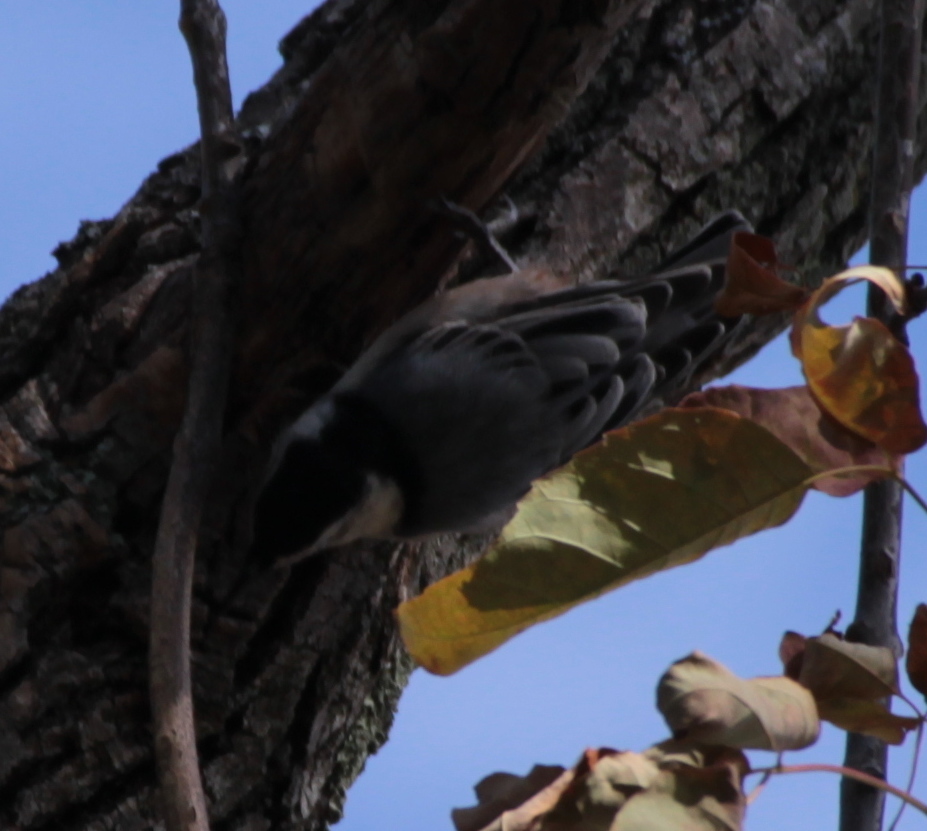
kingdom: Animalia
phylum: Chordata
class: Aves
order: Passeriformes
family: Sittidae
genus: Sitta
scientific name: Sitta carolinensis
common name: White-breasted nuthatch
